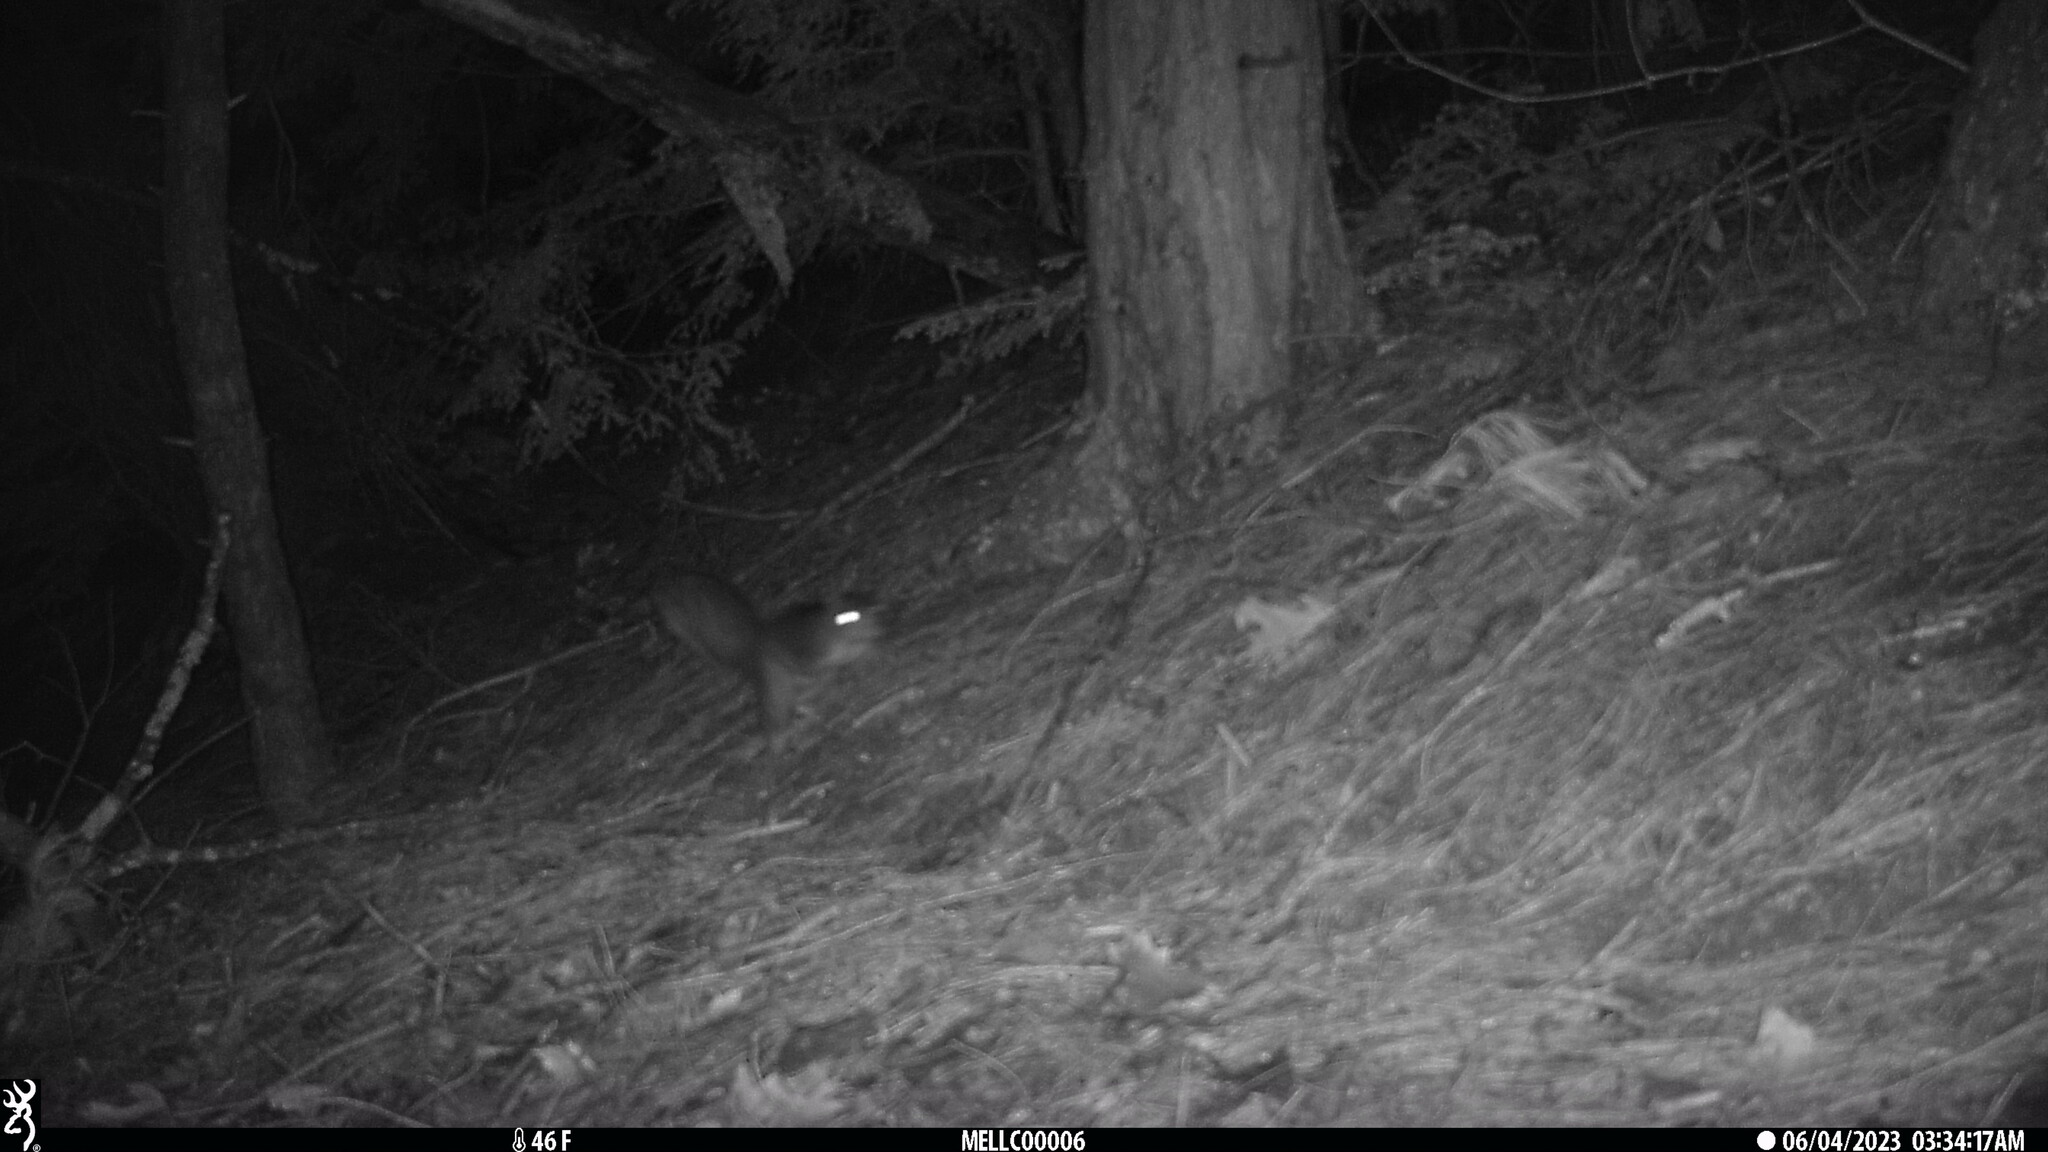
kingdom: Animalia
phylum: Chordata
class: Mammalia
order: Rodentia
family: Sciuridae
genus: Sciurus
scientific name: Sciurus carolinensis
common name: Eastern gray squirrel
